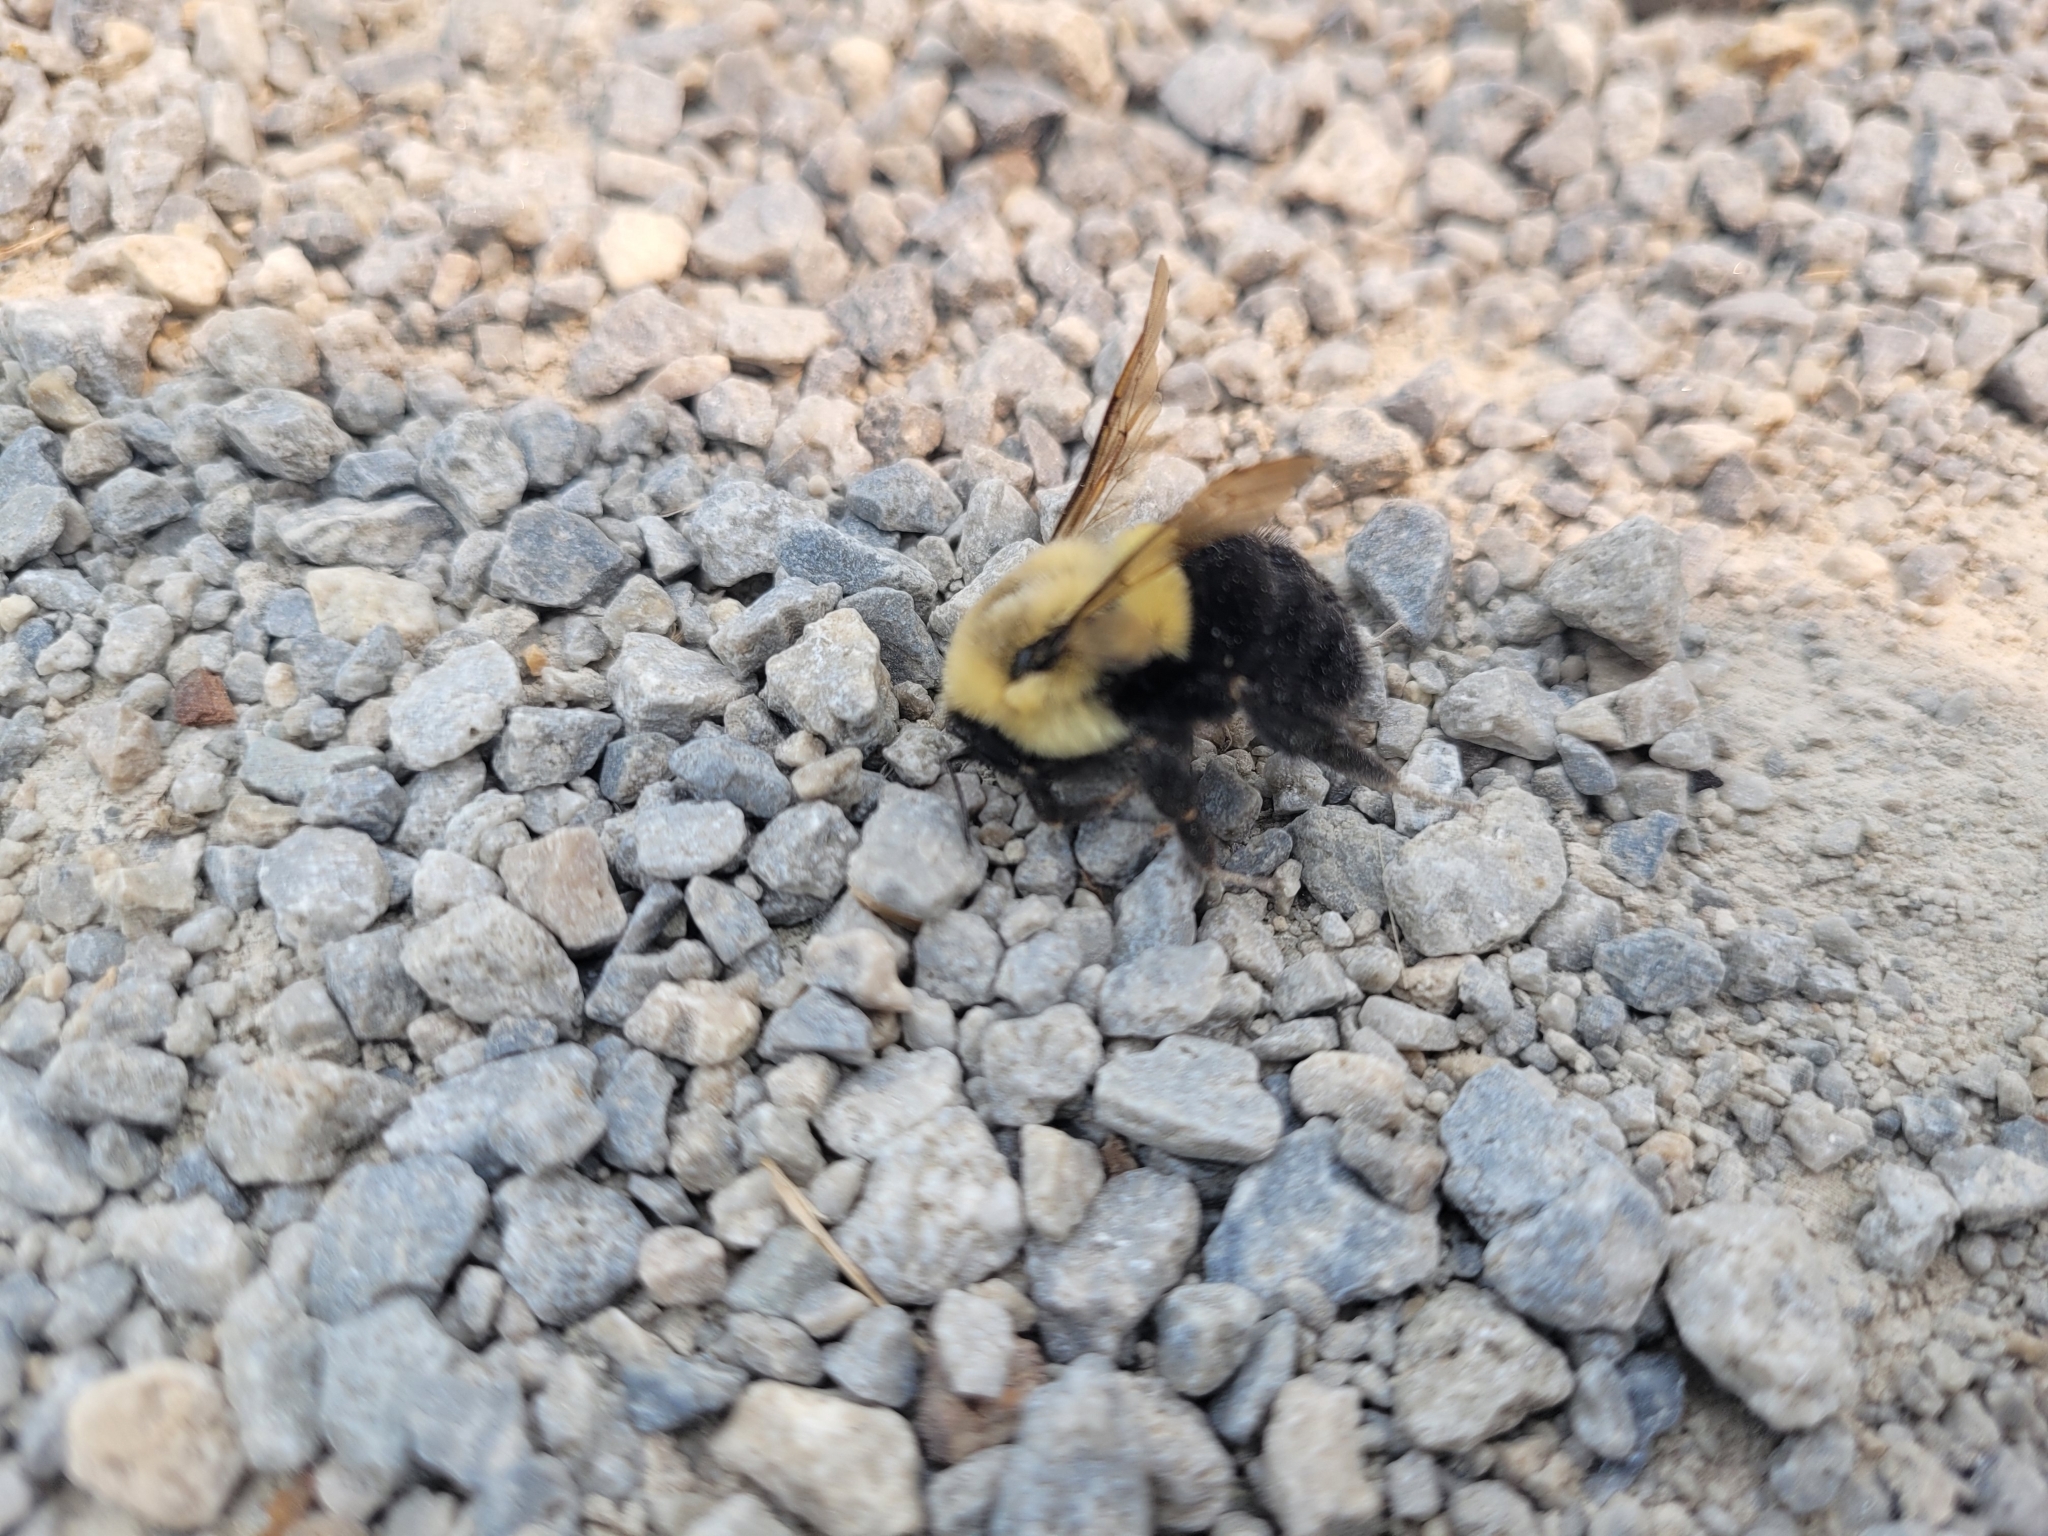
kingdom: Animalia
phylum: Arthropoda
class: Insecta
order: Hymenoptera
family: Apidae
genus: Bombus
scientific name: Bombus impatiens
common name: Common eastern bumble bee
